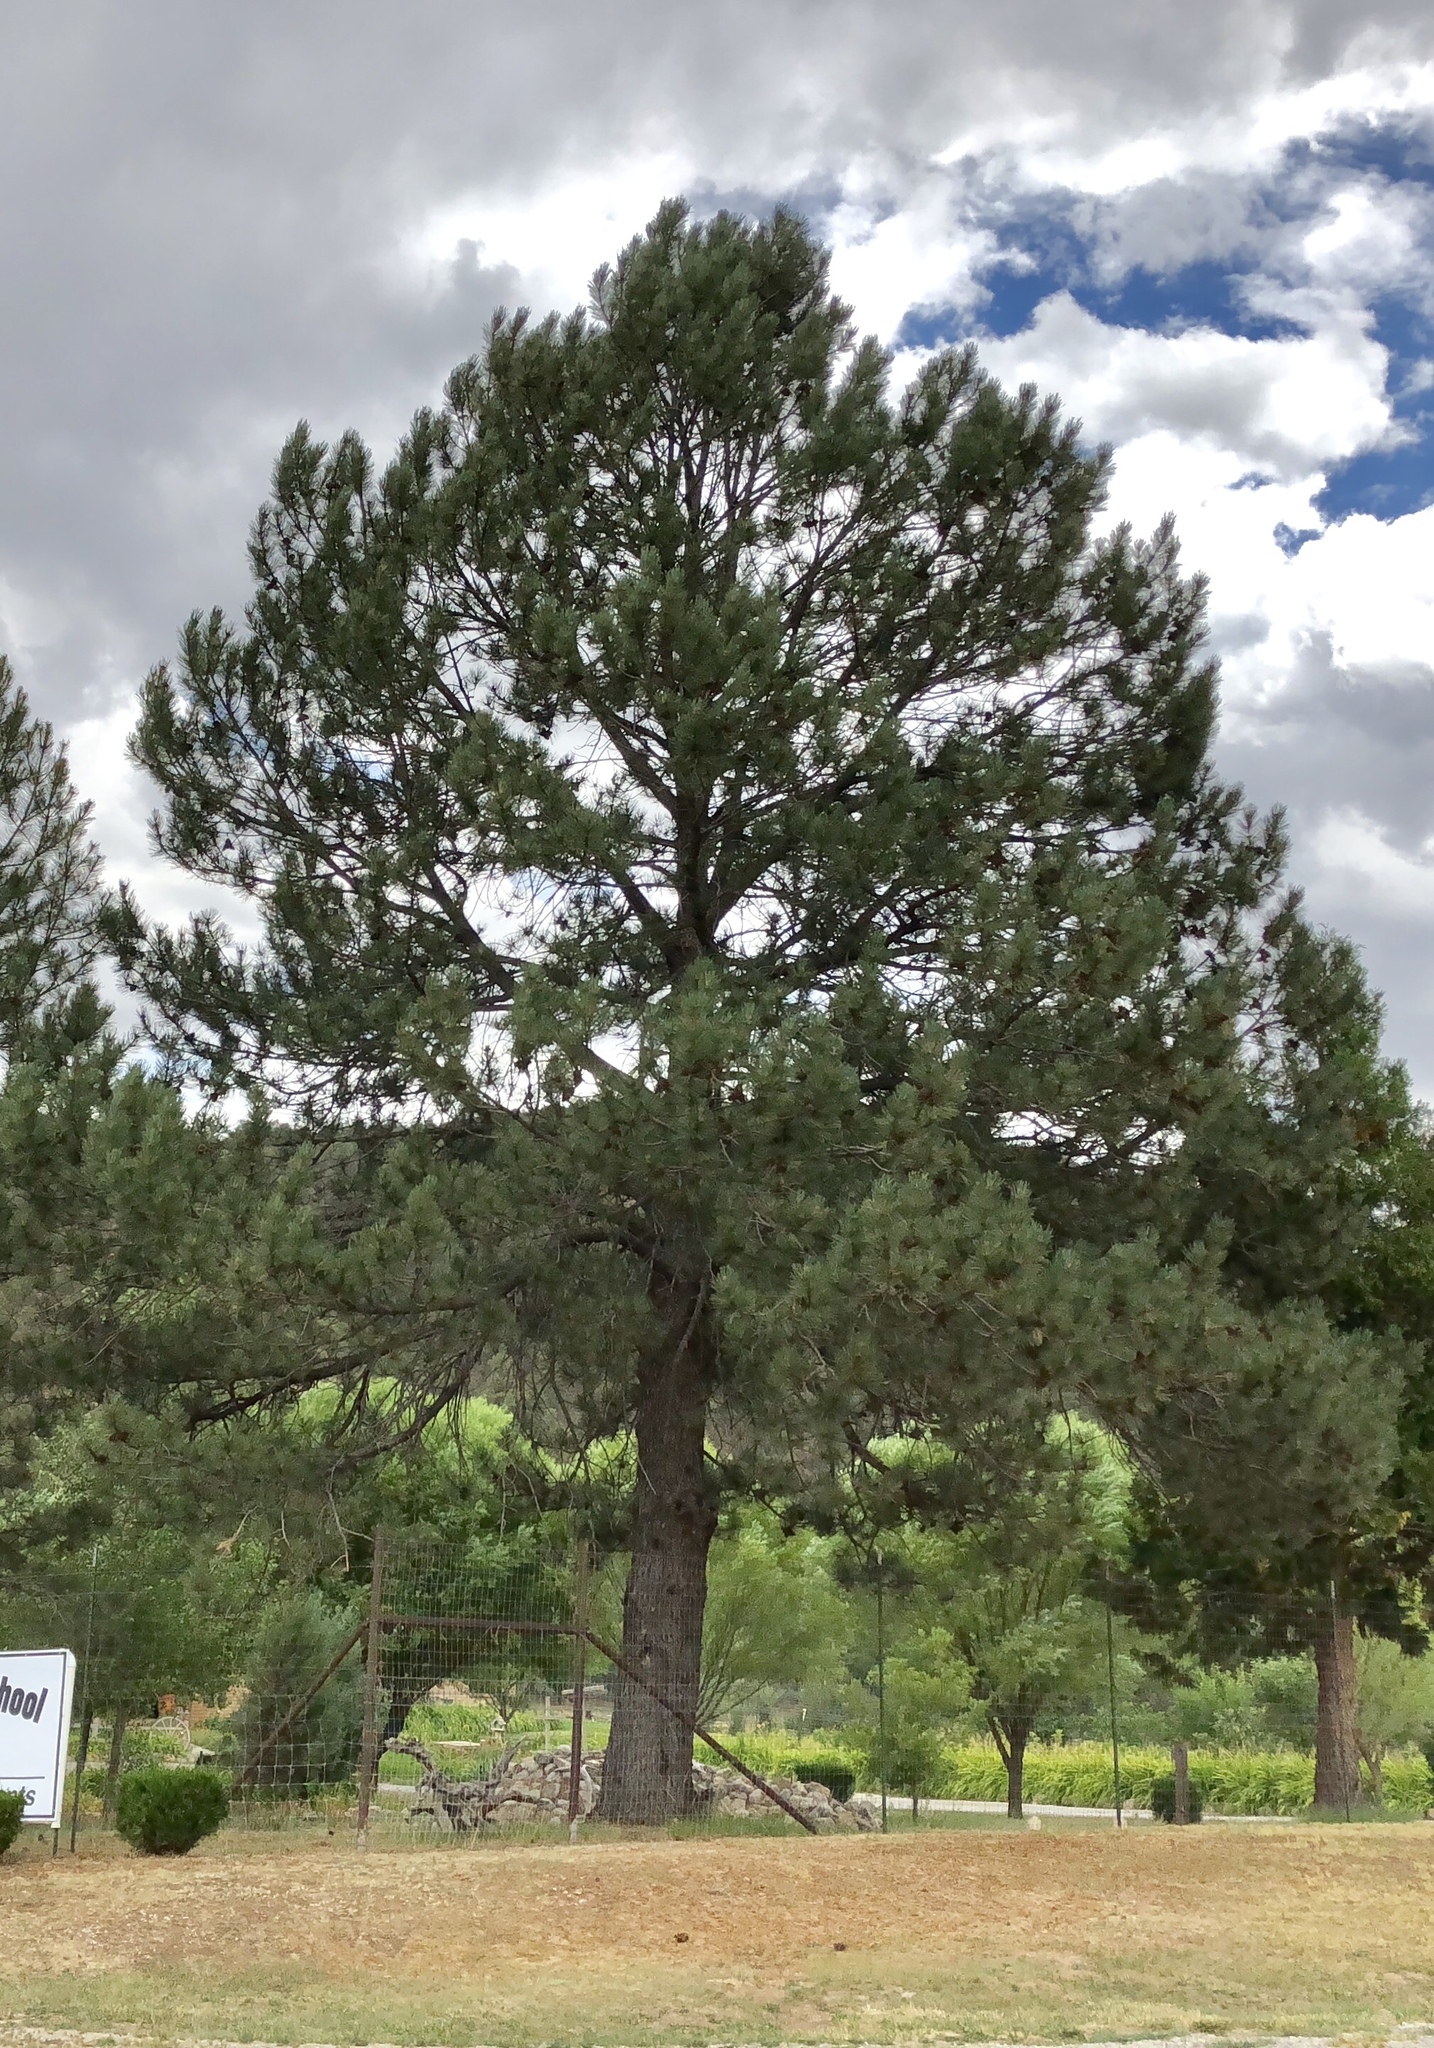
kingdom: Plantae
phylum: Tracheophyta
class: Pinopsida
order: Pinales
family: Pinaceae
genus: Pinus
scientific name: Pinus ponderosa
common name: Western yellow-pine
